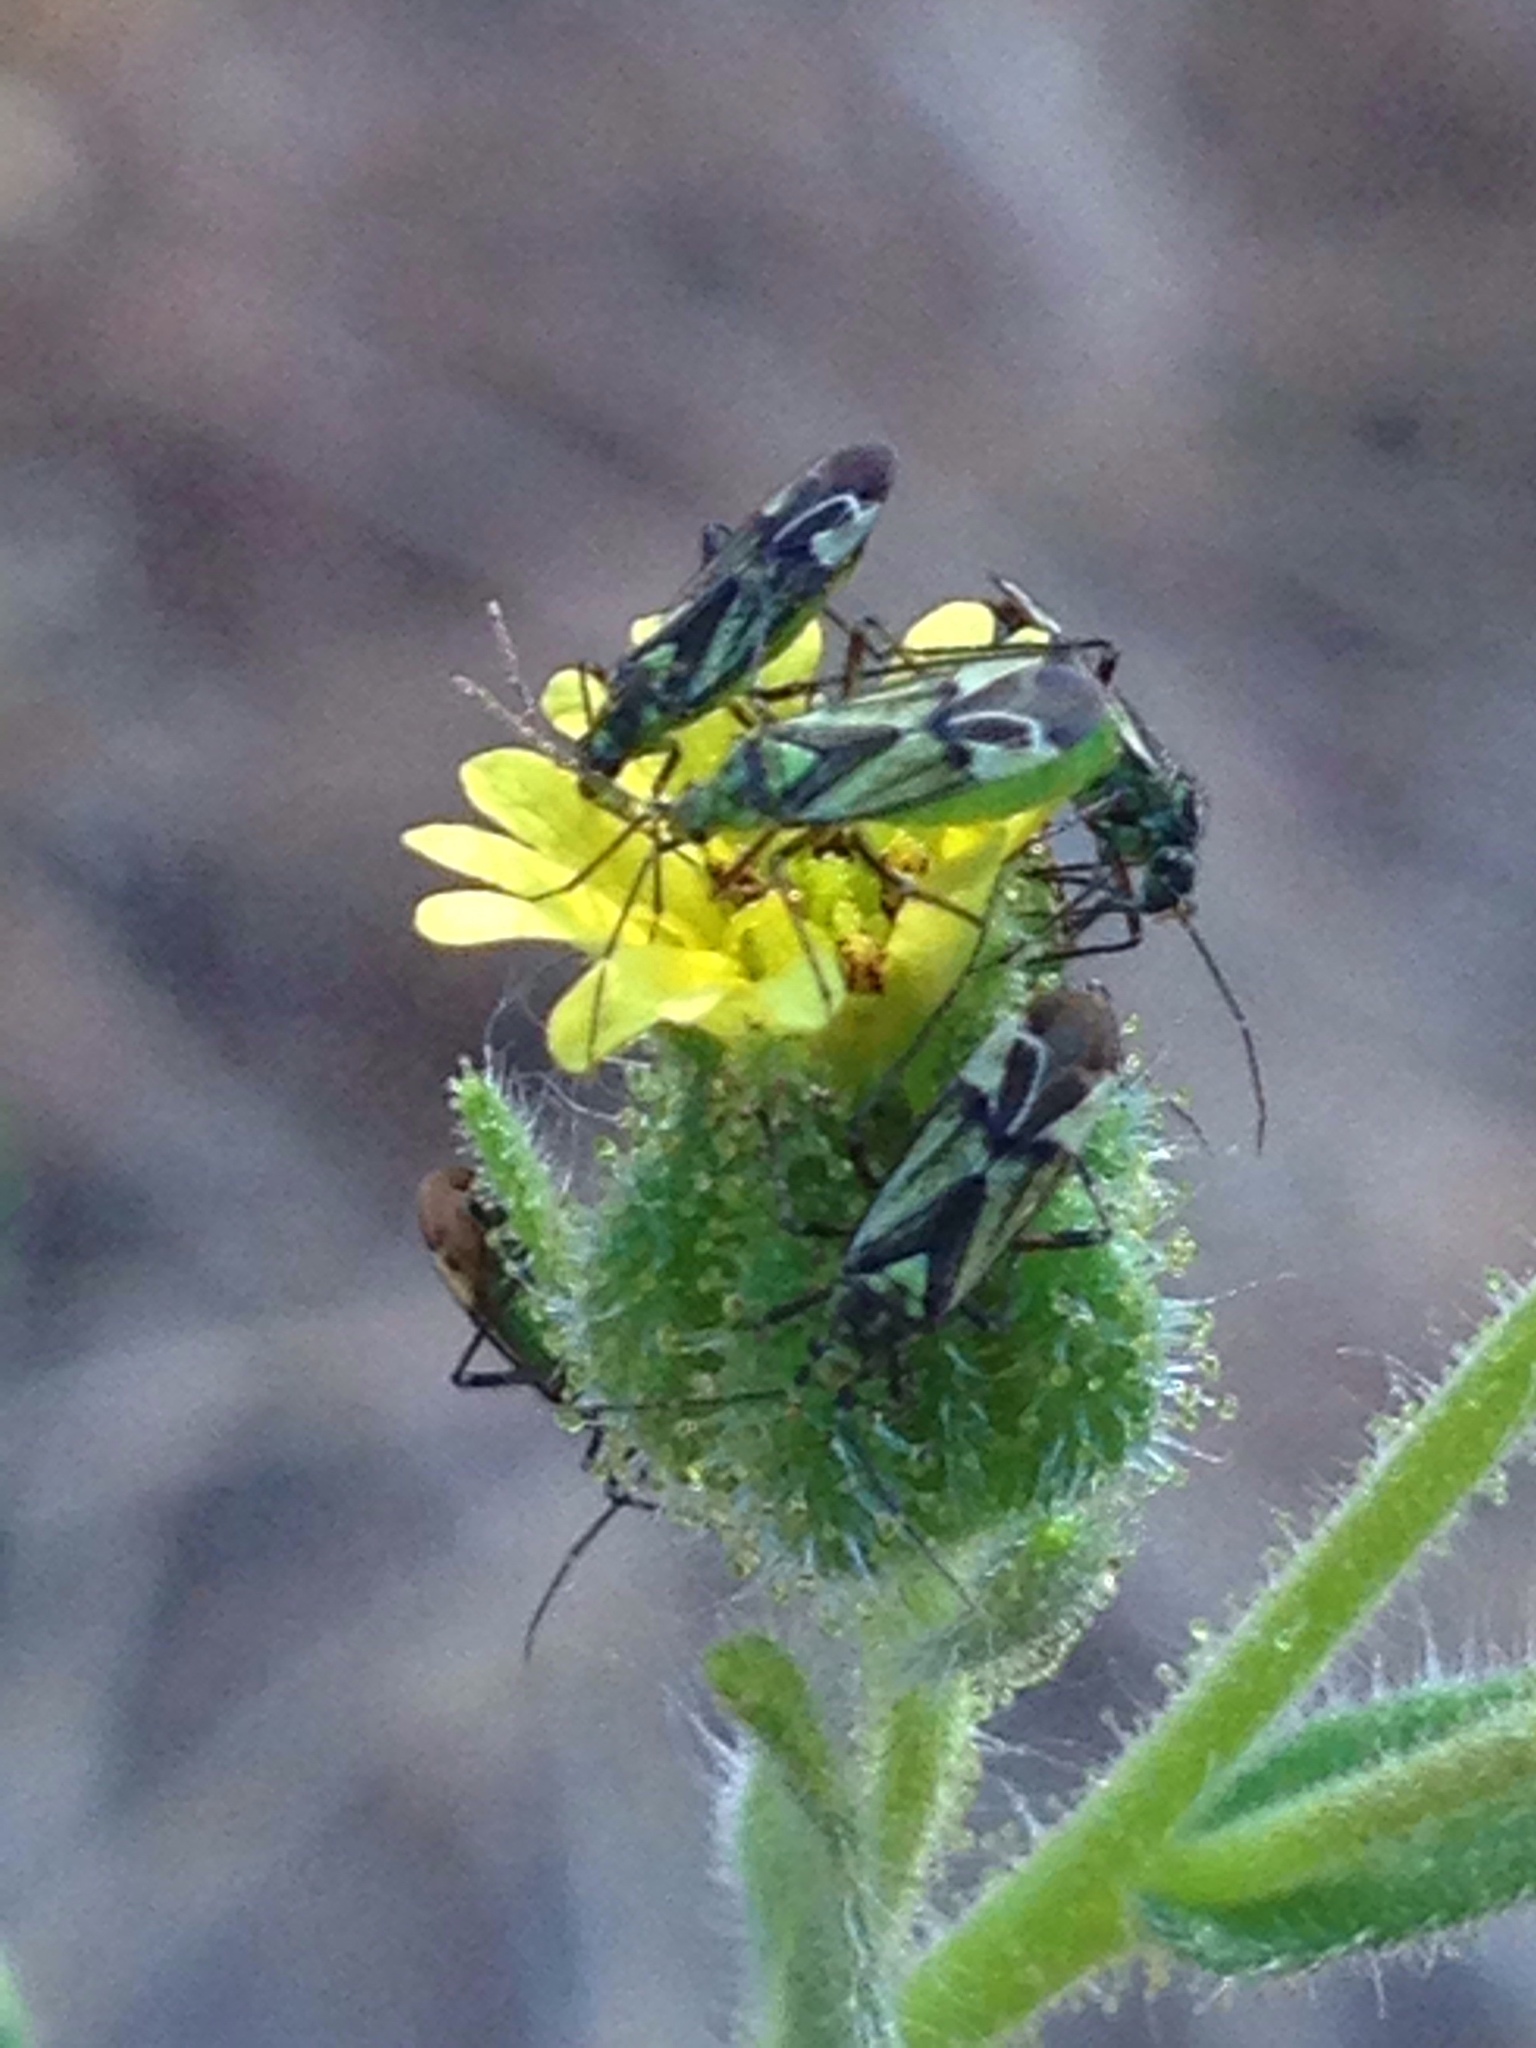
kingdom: Animalia
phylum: Arthropoda
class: Insecta
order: Hemiptera
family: Miridae
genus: Macrotylus
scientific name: Macrotylus intermedius
